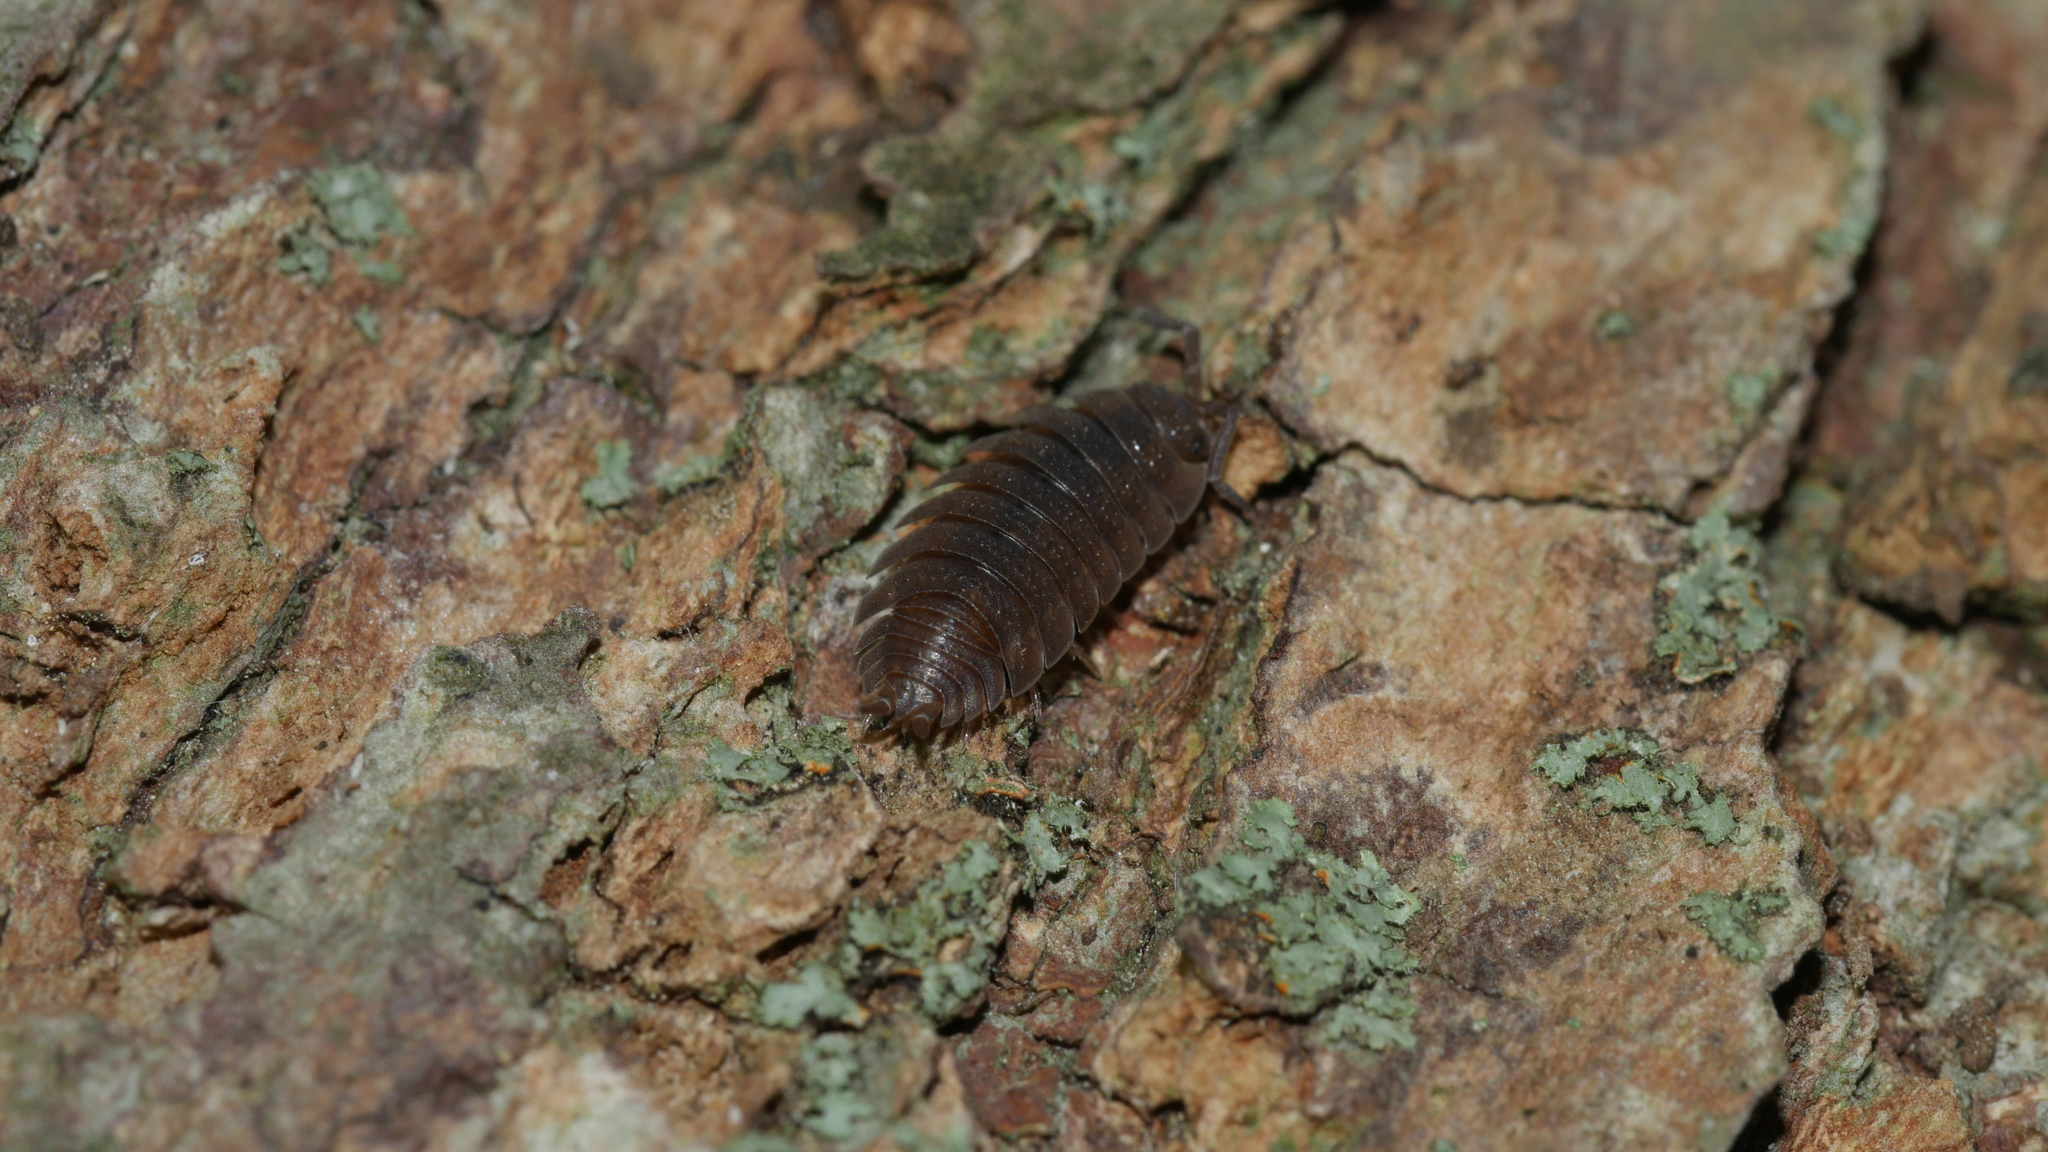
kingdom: Animalia
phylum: Arthropoda
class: Malacostraca
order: Isopoda
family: Porcellionidae
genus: Porcellio
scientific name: Porcellio scaber
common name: Common rough woodlouse
